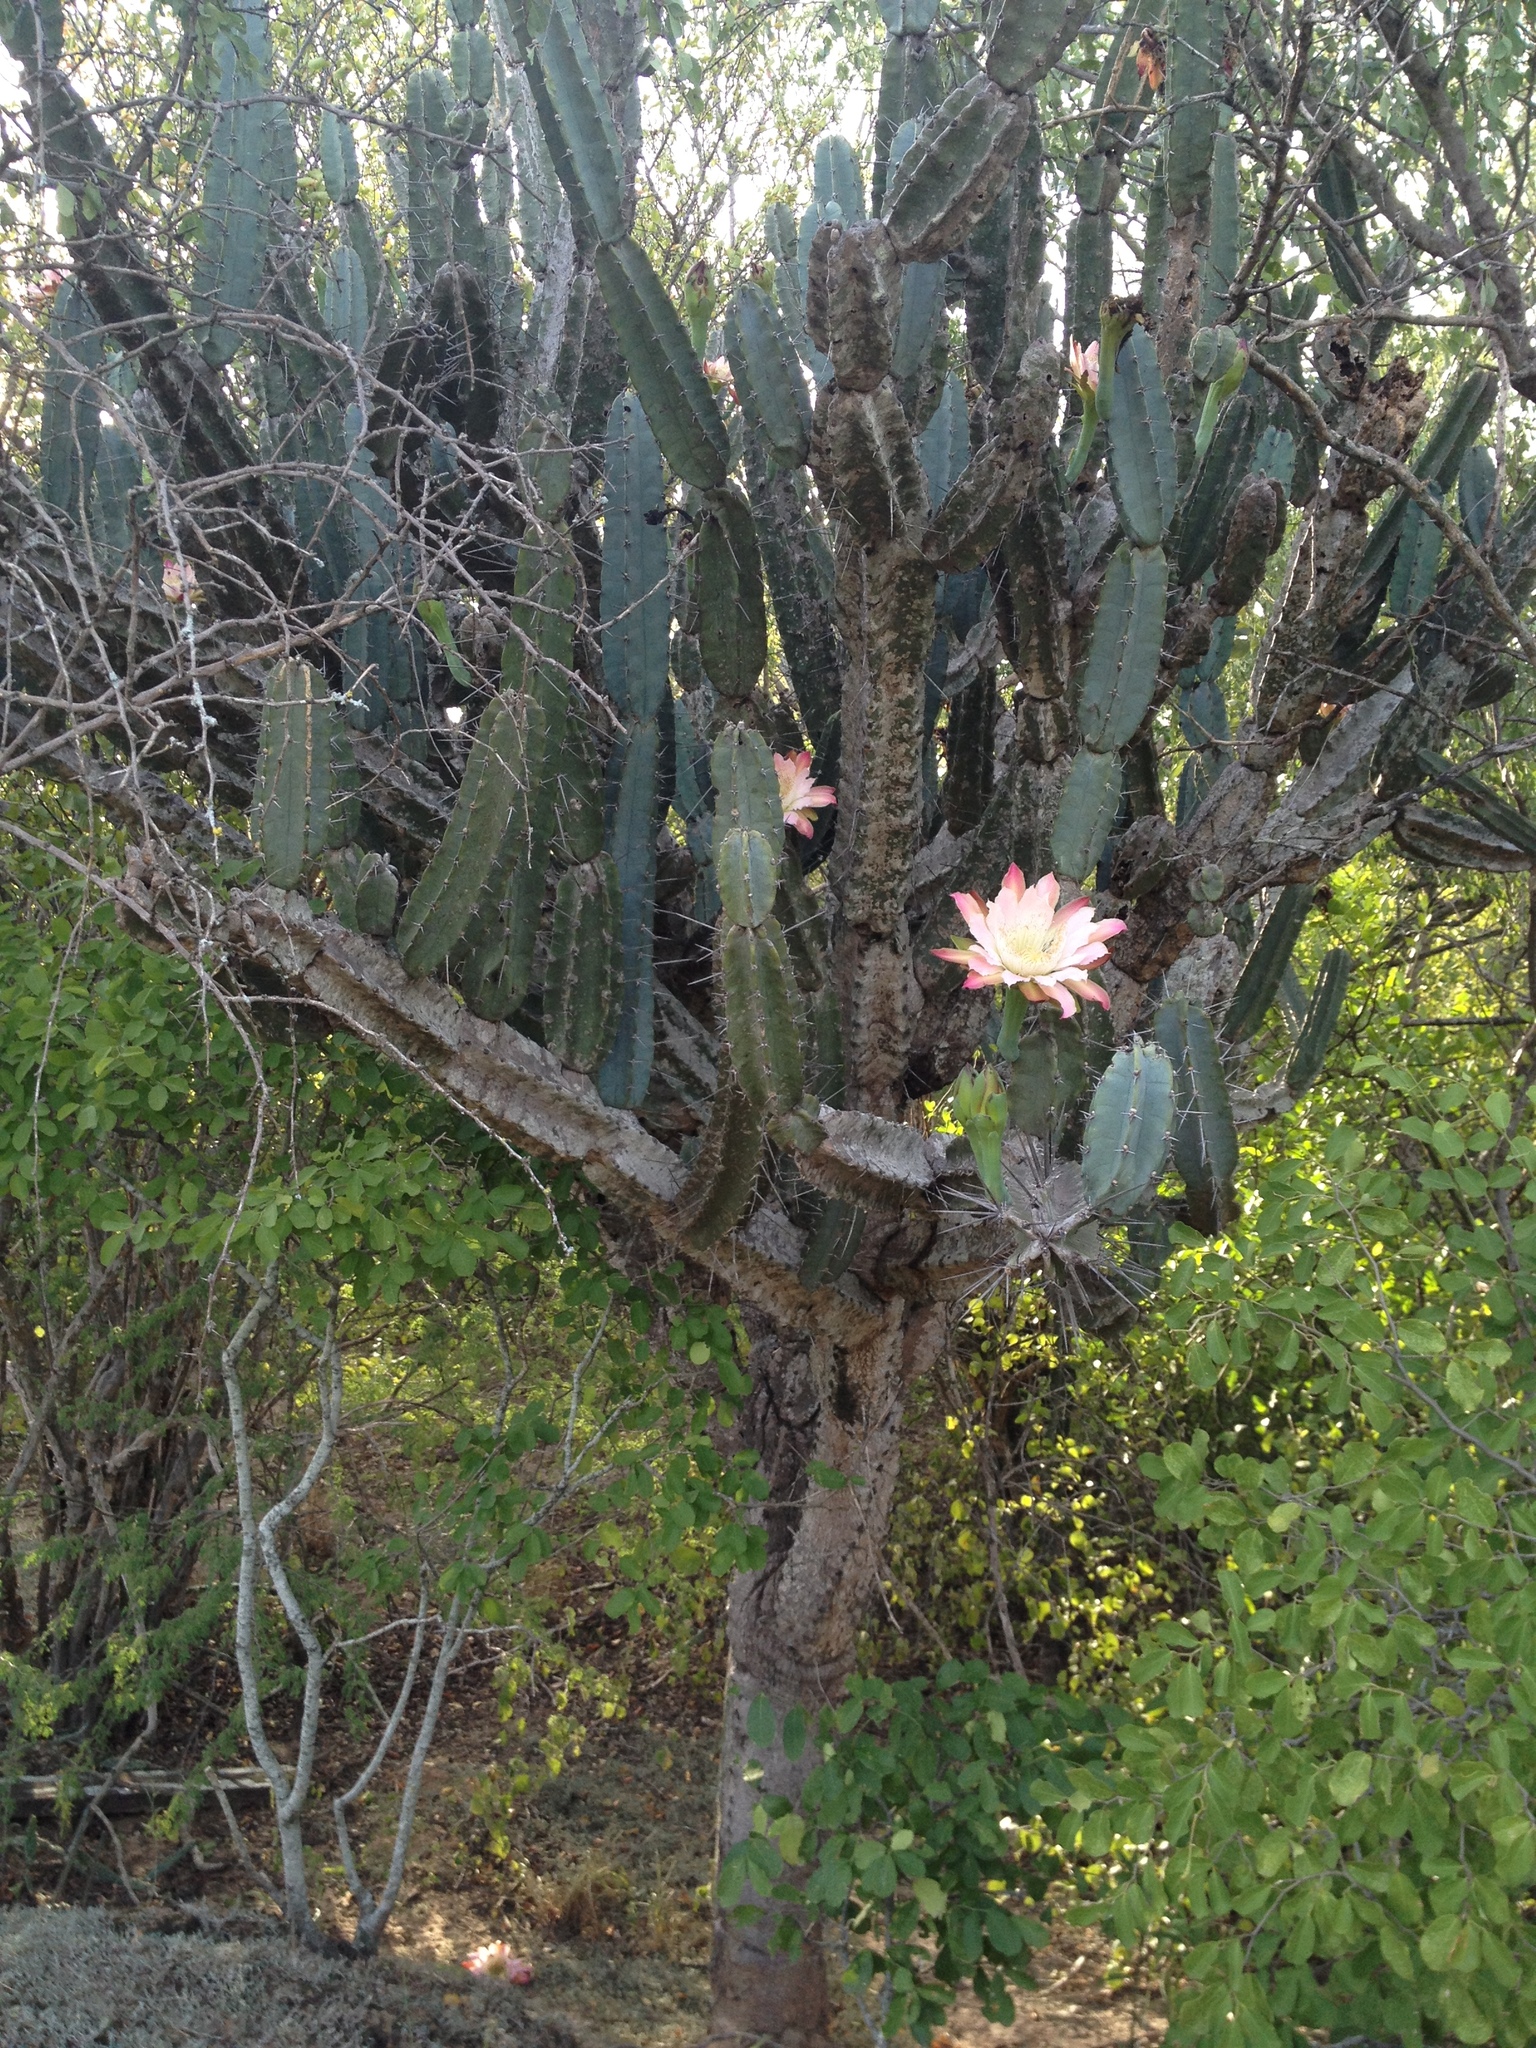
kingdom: Plantae
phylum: Tracheophyta
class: Magnoliopsida
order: Caryophyllales
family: Cactaceae
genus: Cereus
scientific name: Cereus forbesii
